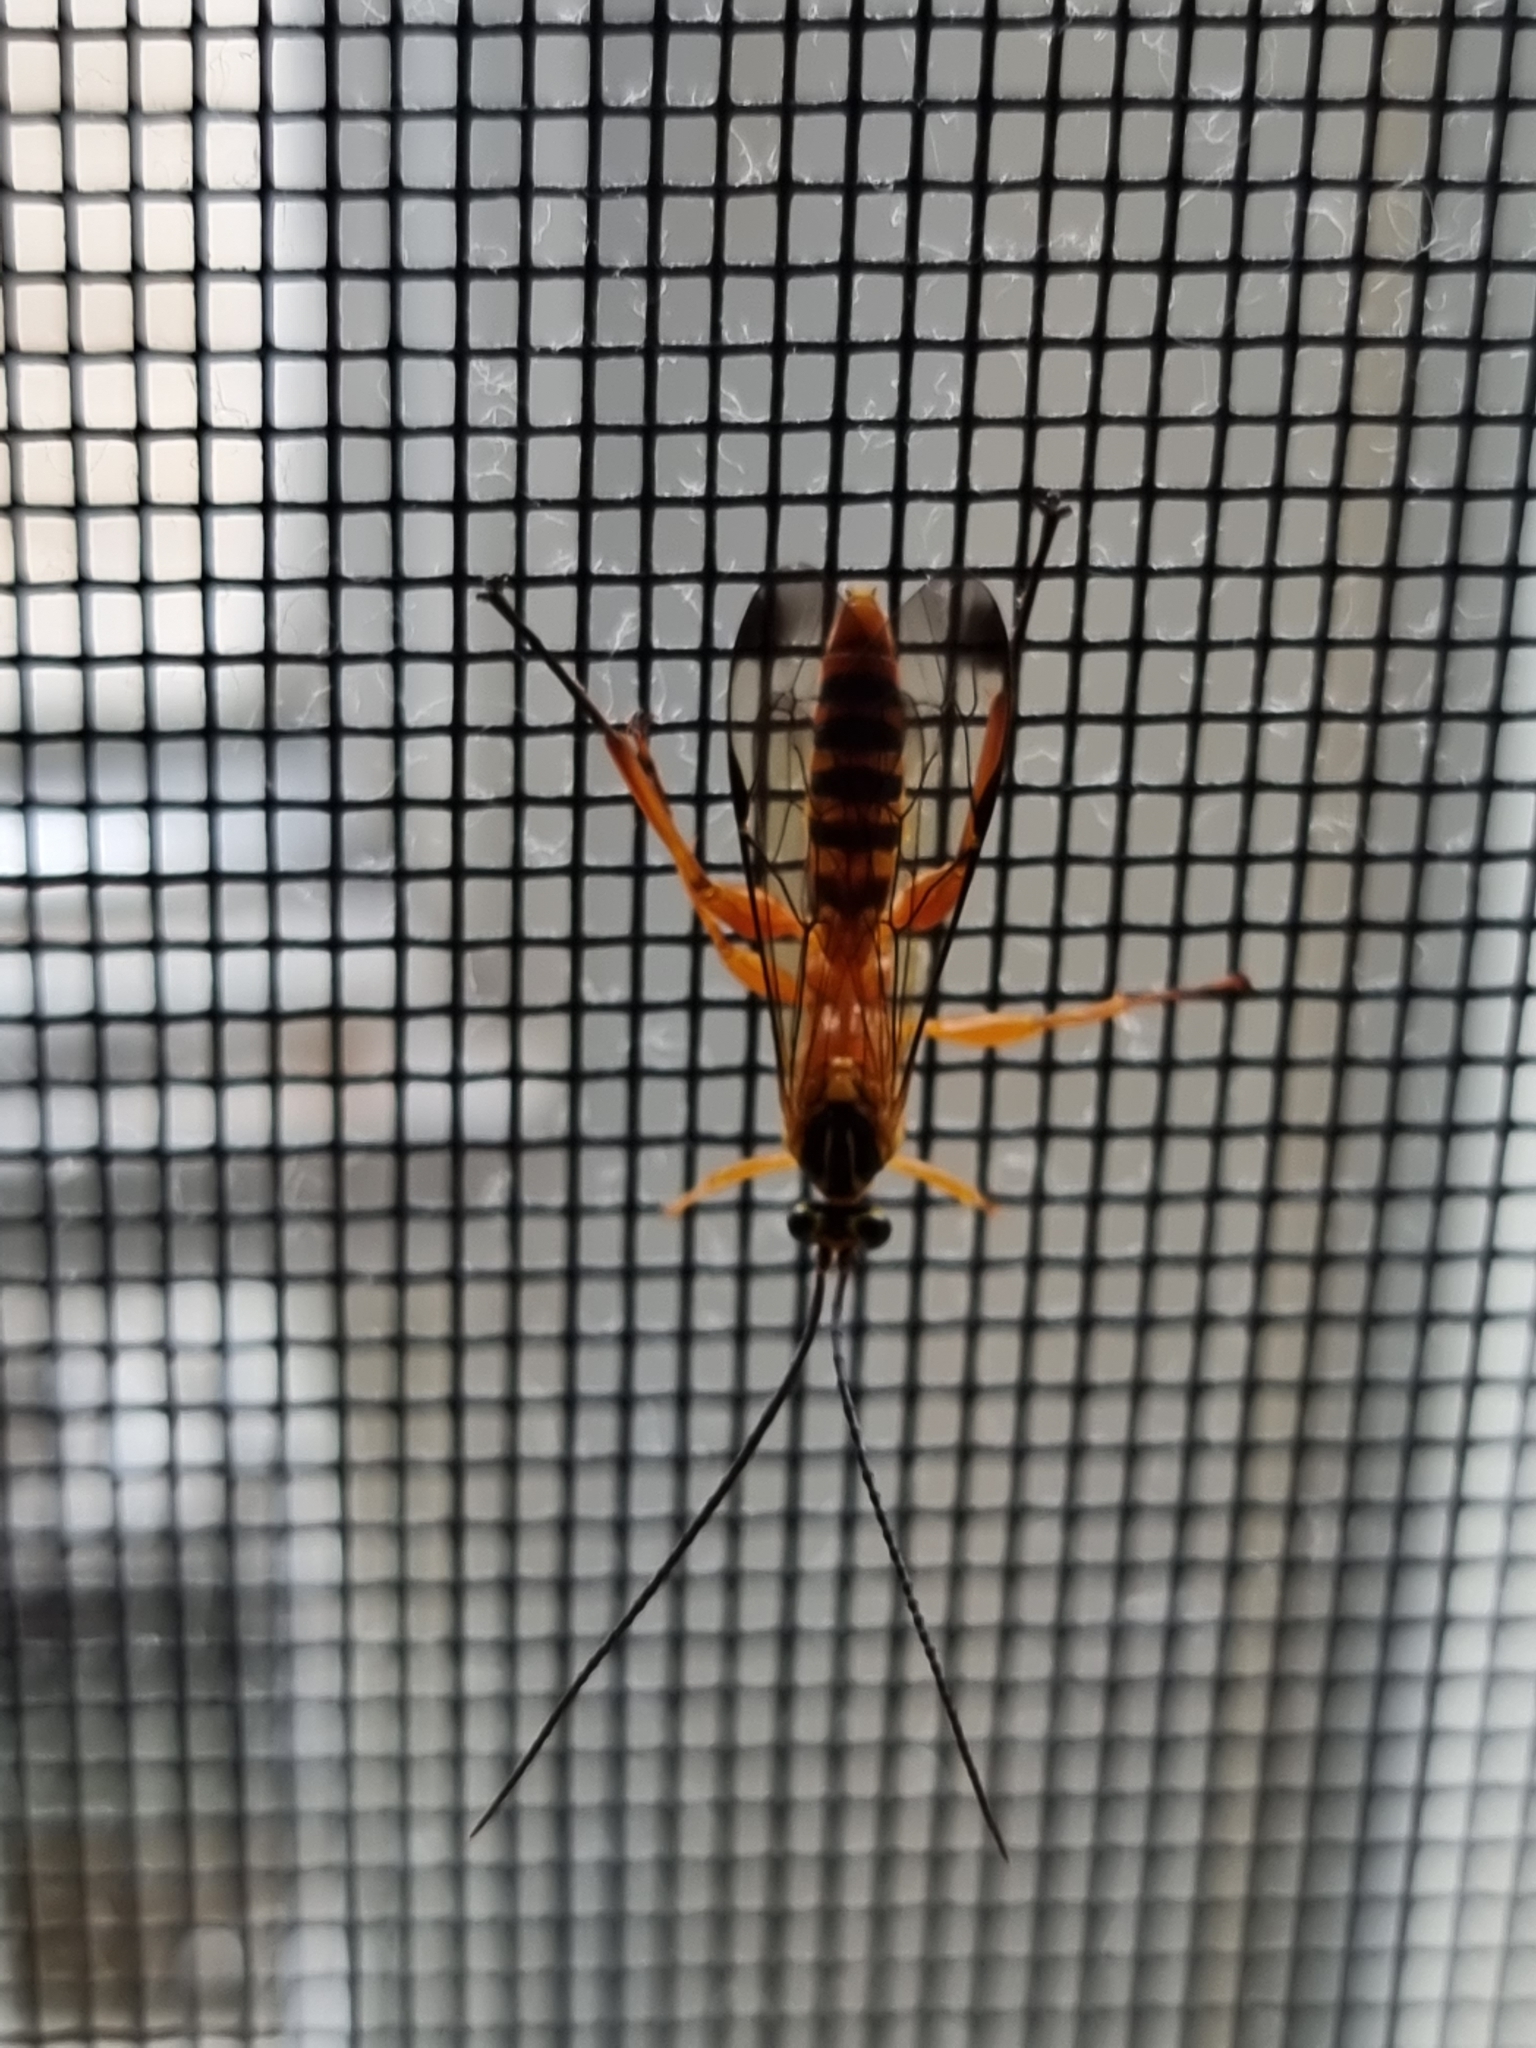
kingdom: Animalia
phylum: Arthropoda
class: Insecta
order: Hymenoptera
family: Ichneumonidae
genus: Echthromorpha
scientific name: Echthromorpha agrestoria
